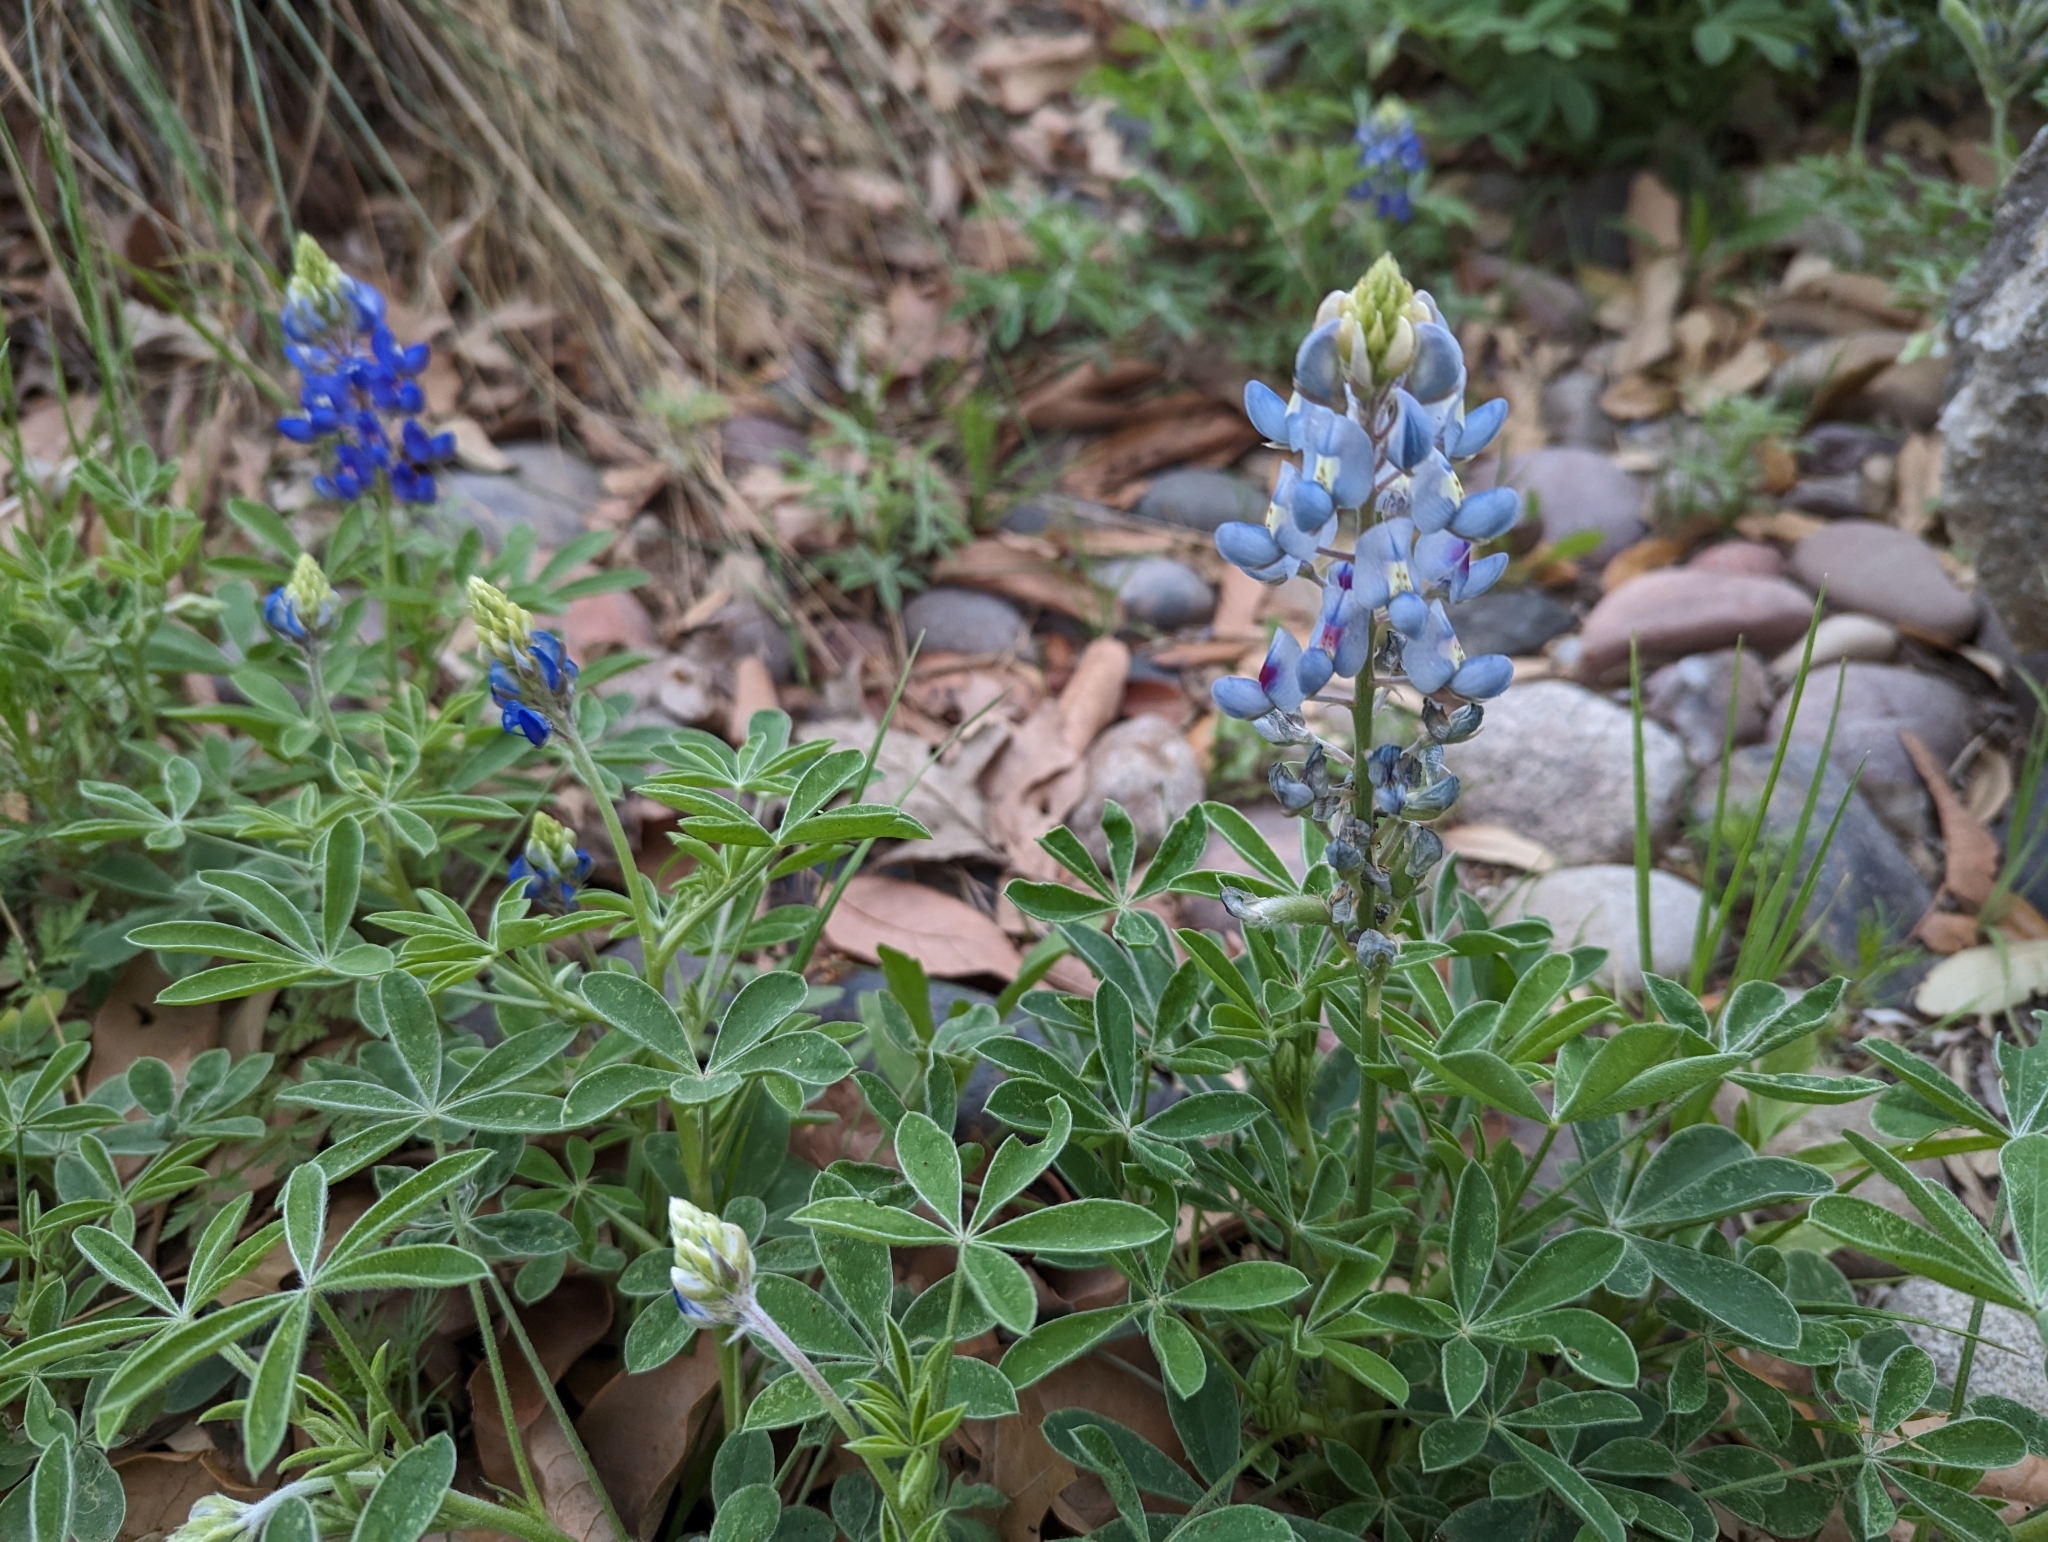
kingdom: Plantae
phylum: Tracheophyta
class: Magnoliopsida
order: Fabales
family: Fabaceae
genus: Lupinus
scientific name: Lupinus texensis
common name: Texas bluebonnet
